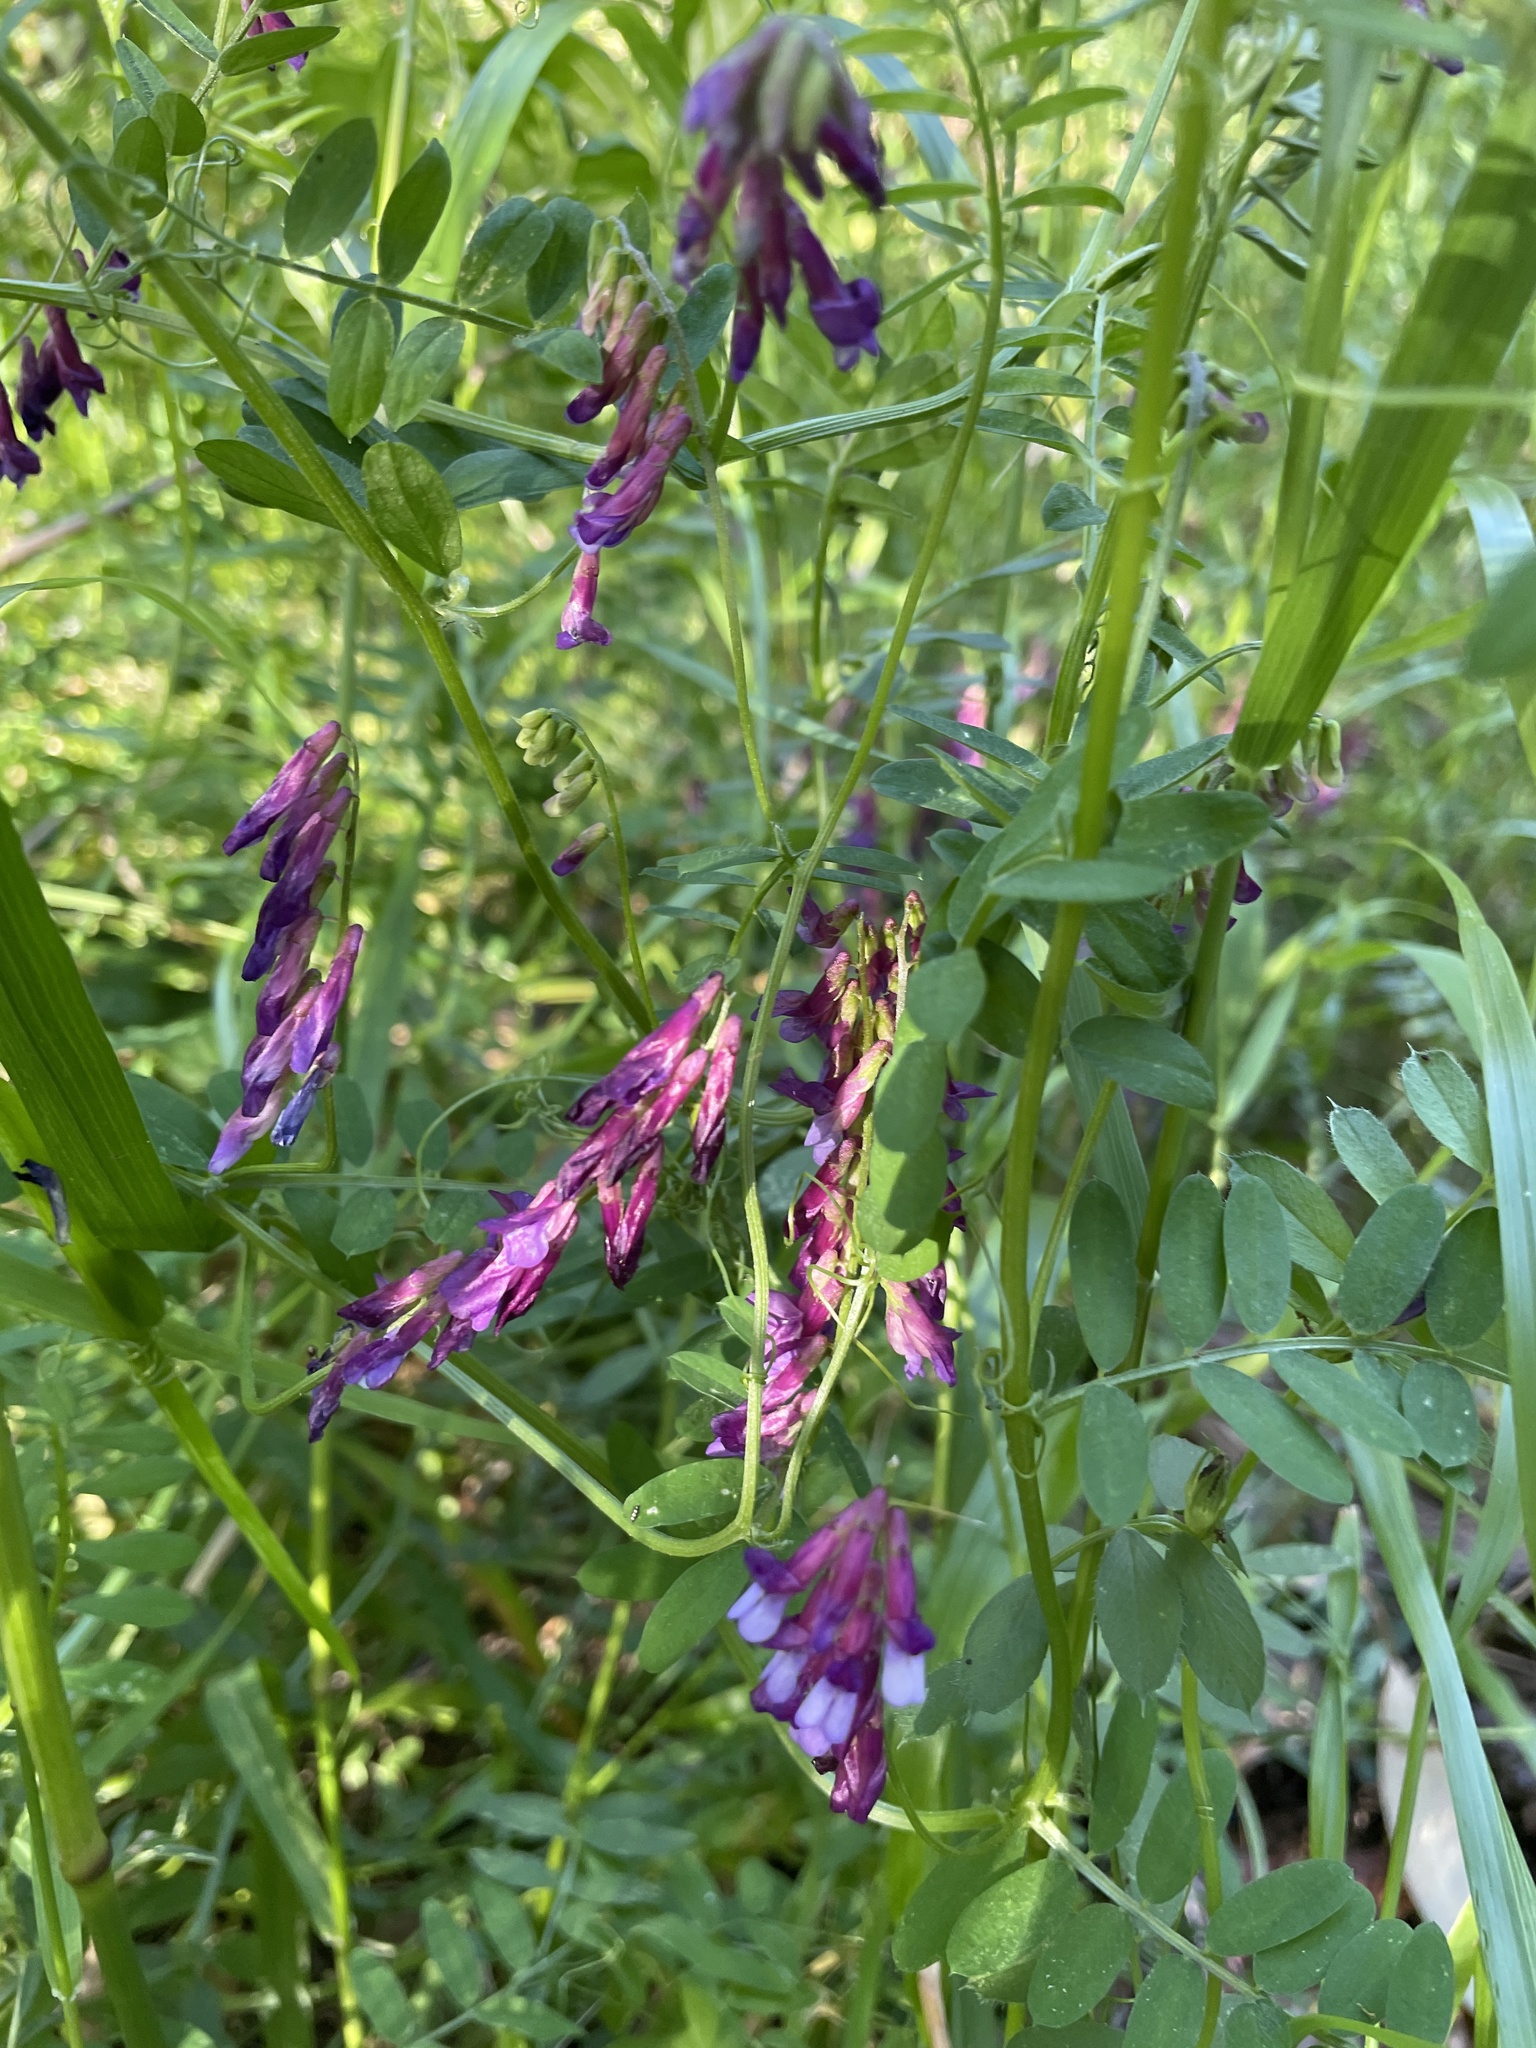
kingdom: Plantae
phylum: Tracheophyta
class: Magnoliopsida
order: Fabales
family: Fabaceae
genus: Vicia
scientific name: Vicia villosa
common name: Fodder vetch
